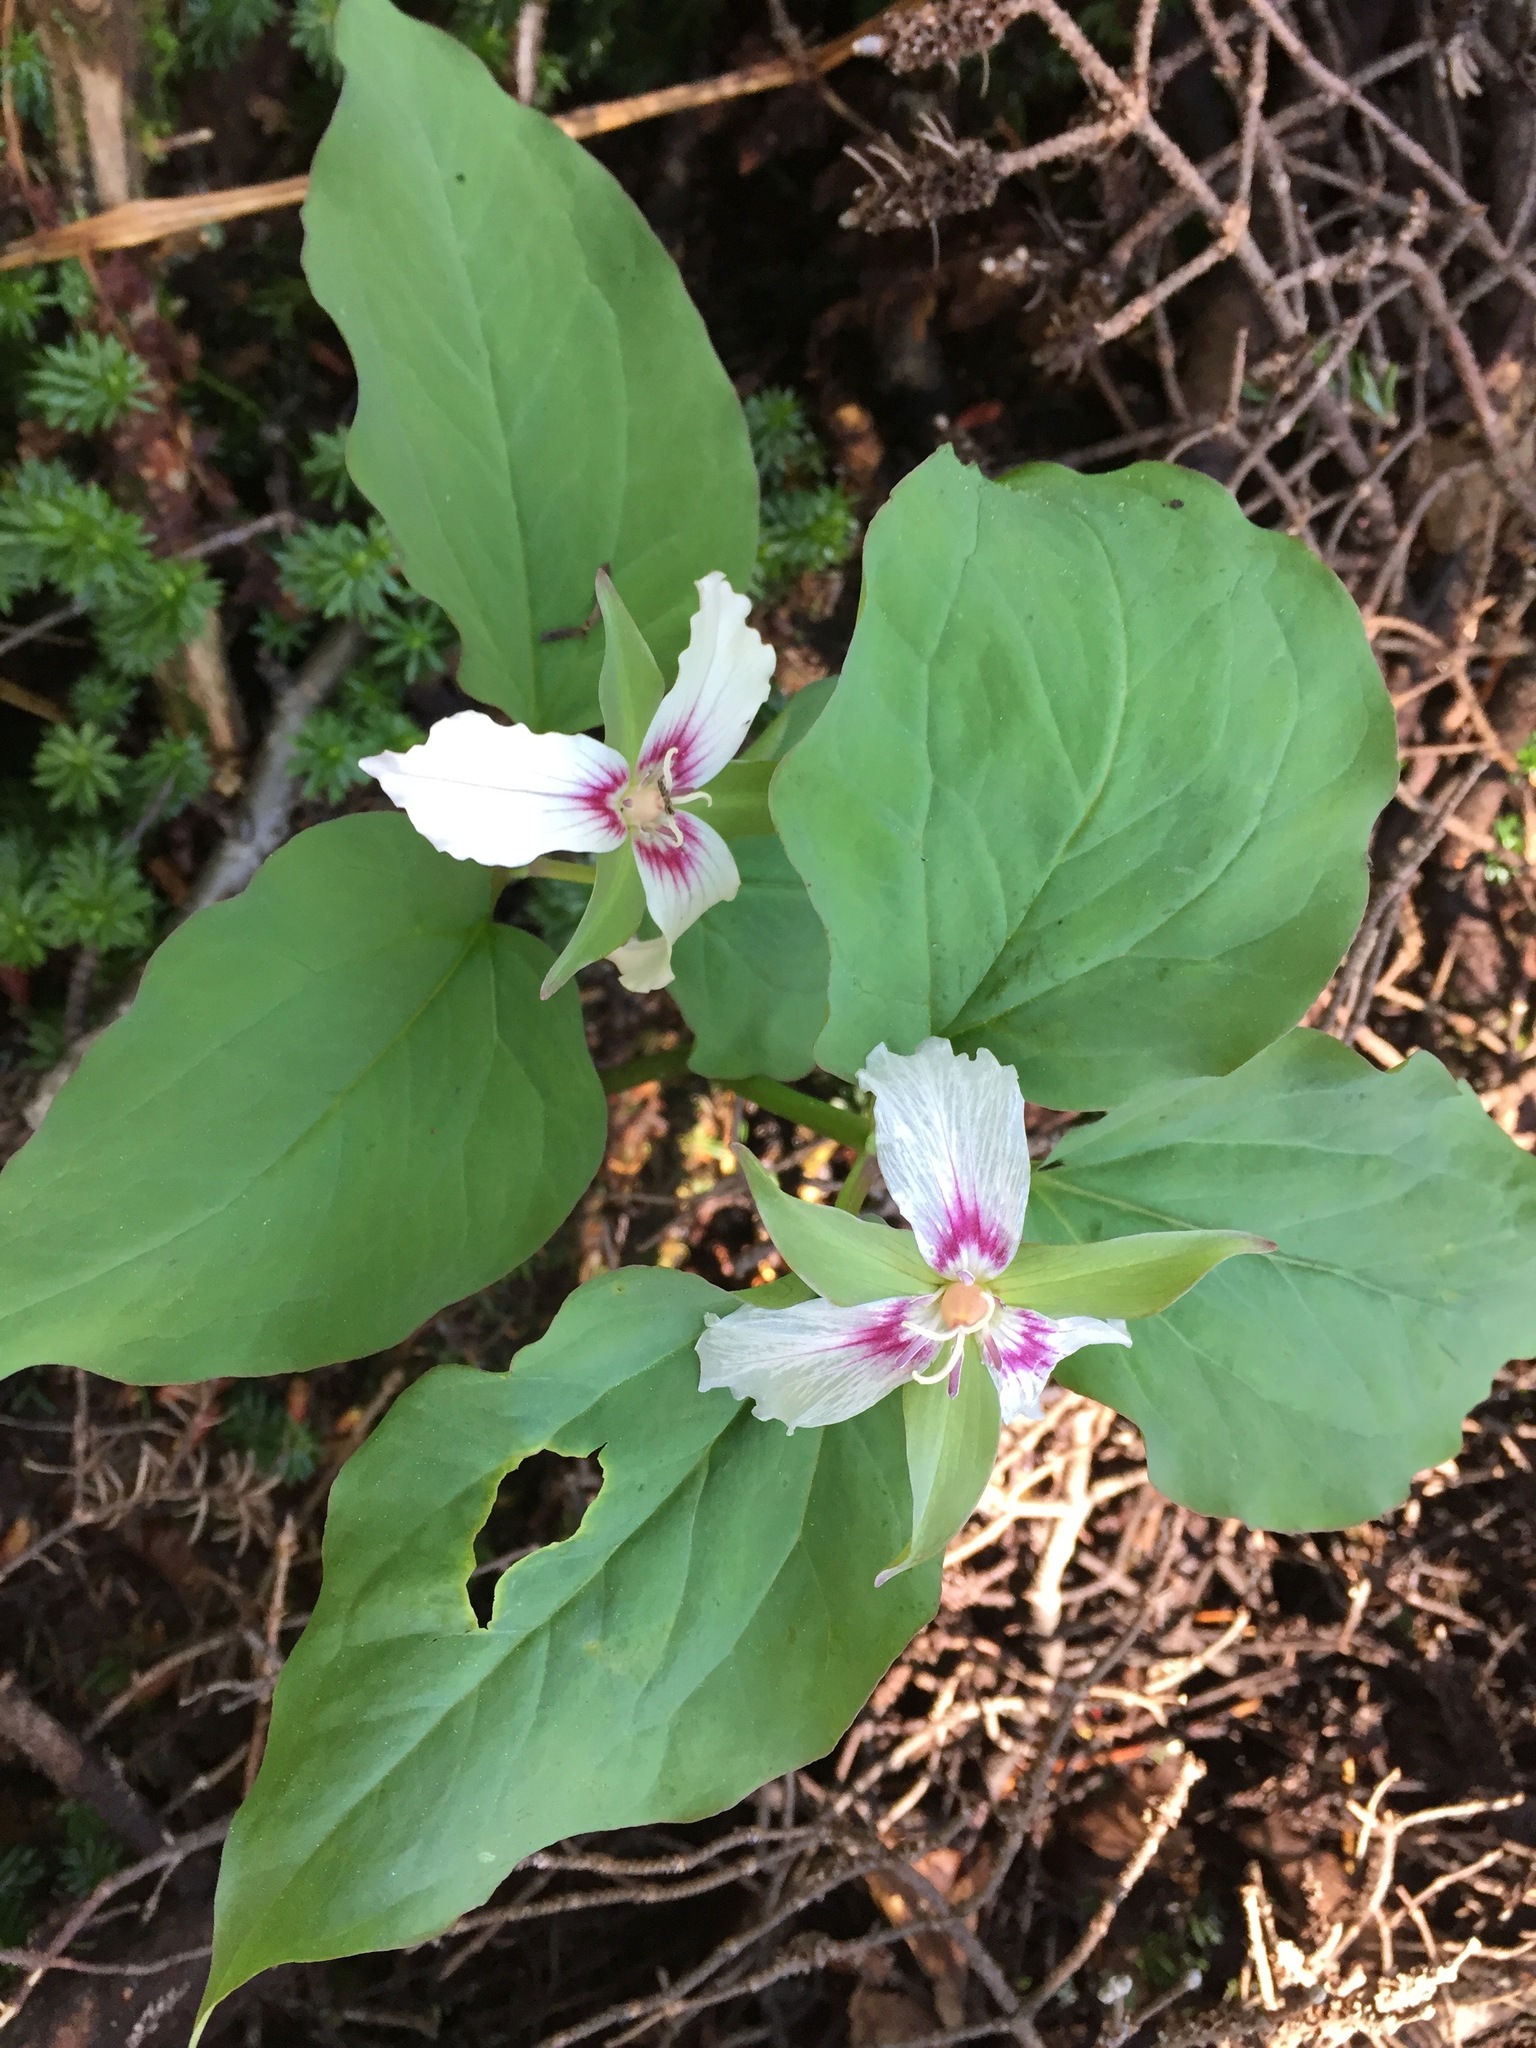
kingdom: Plantae
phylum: Tracheophyta
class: Liliopsida
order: Liliales
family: Melanthiaceae
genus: Trillium
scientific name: Trillium undulatum
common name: Paint trillium
